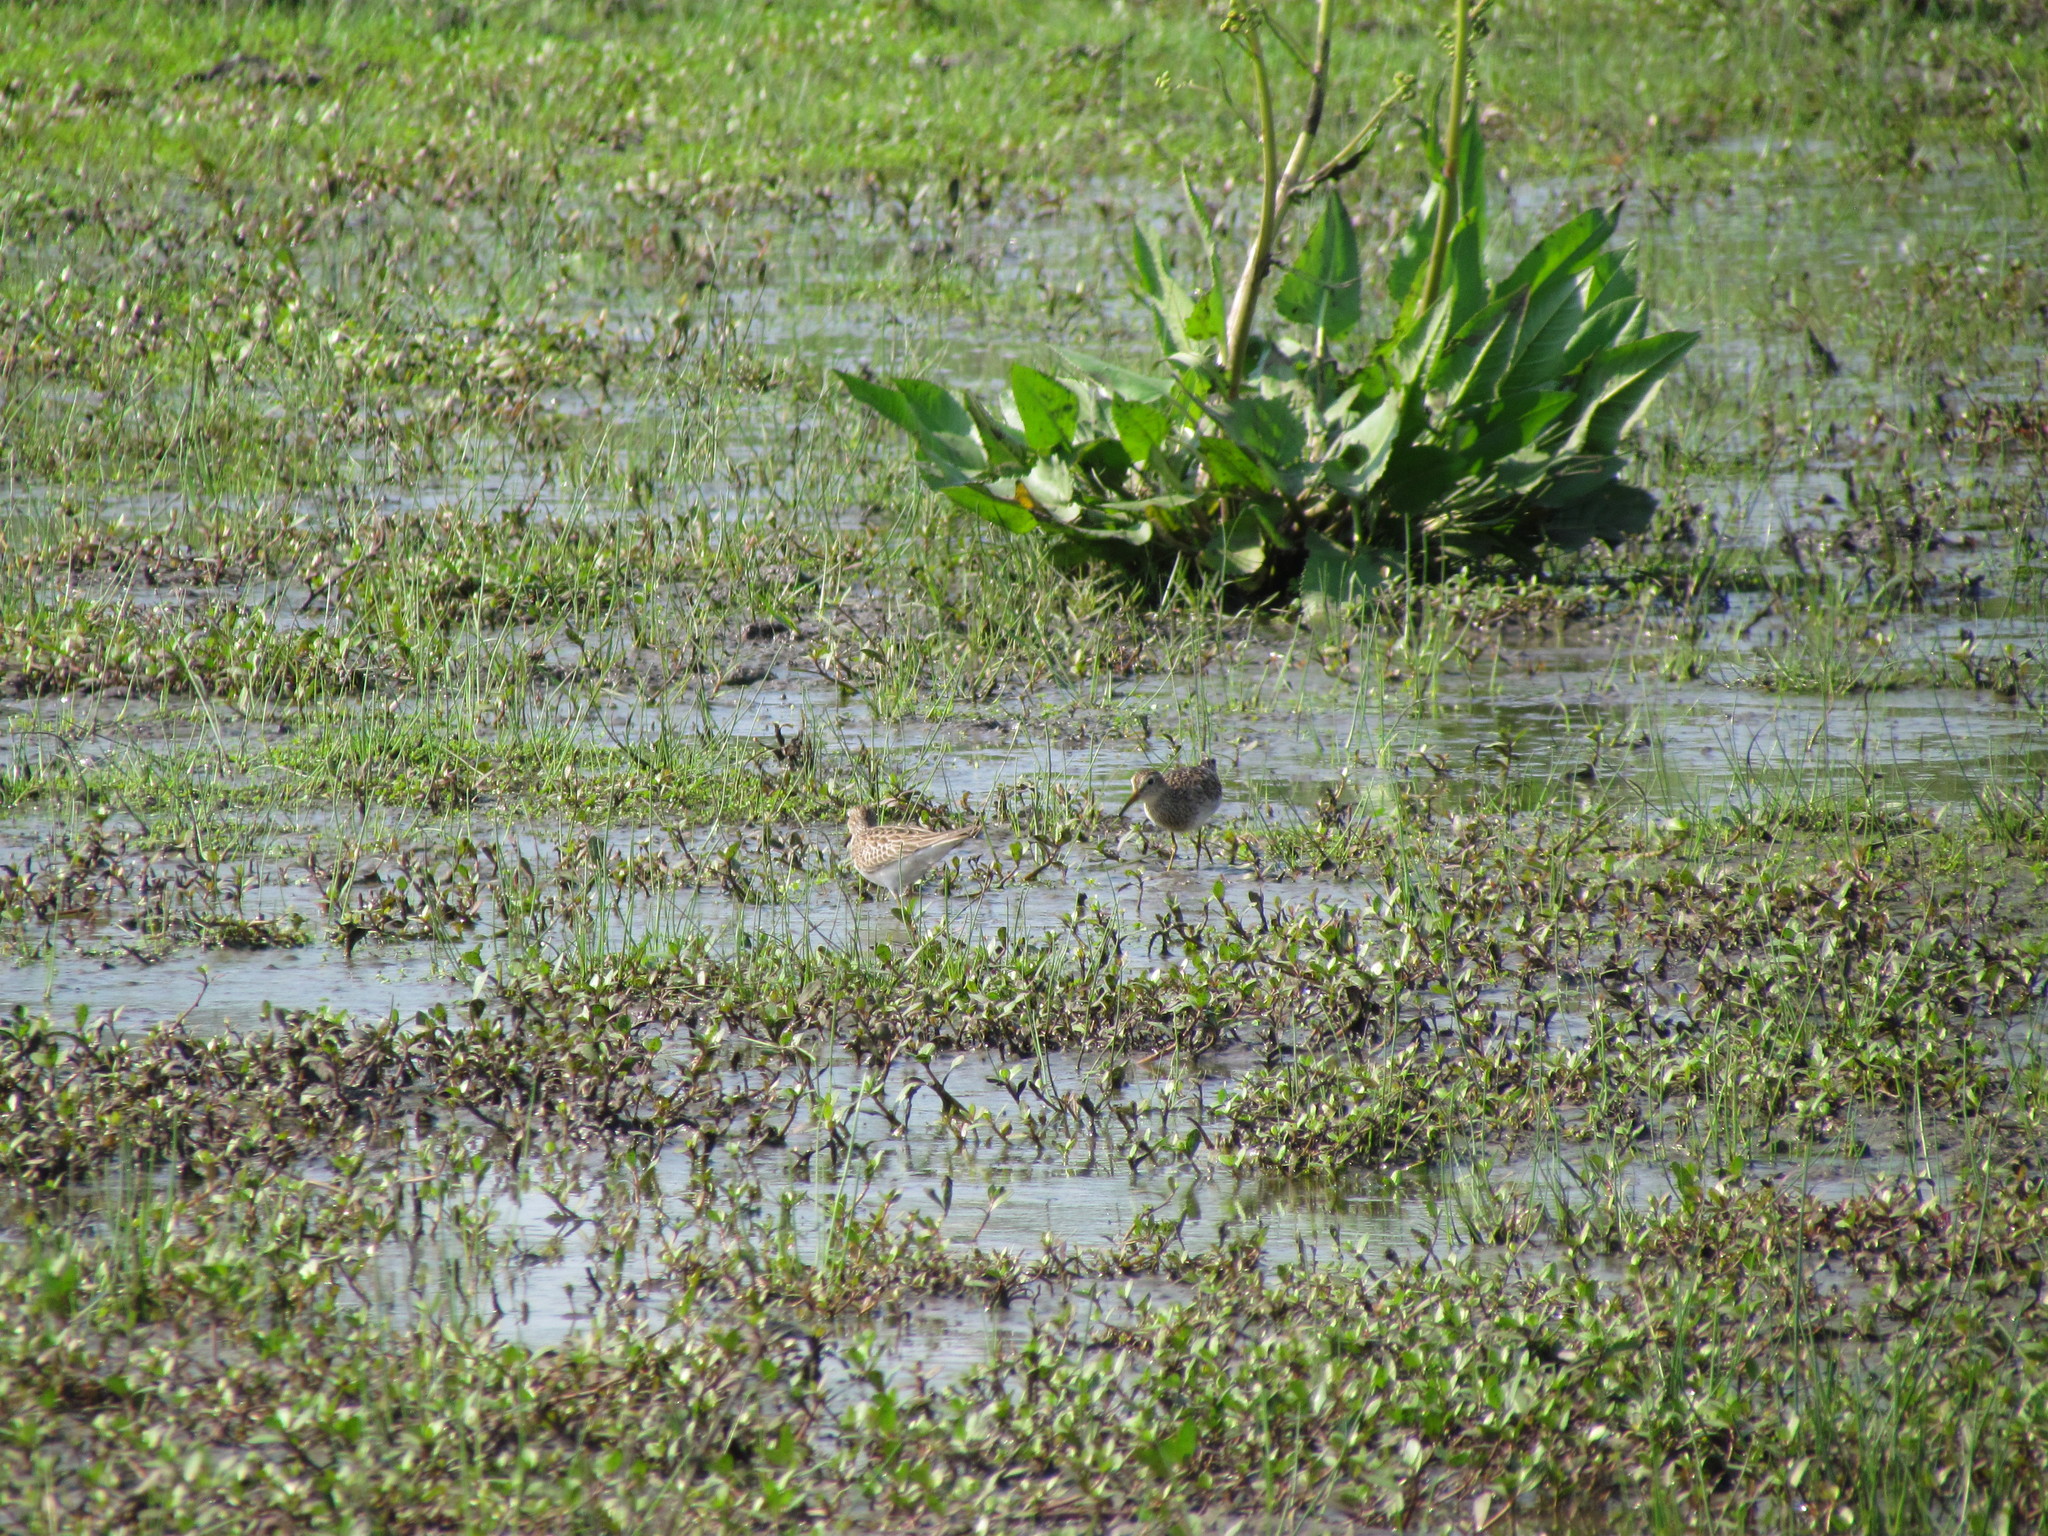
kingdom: Animalia
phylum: Chordata
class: Aves
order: Charadriiformes
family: Scolopacidae
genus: Calidris
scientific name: Calidris melanotos
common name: Pectoral sandpiper
